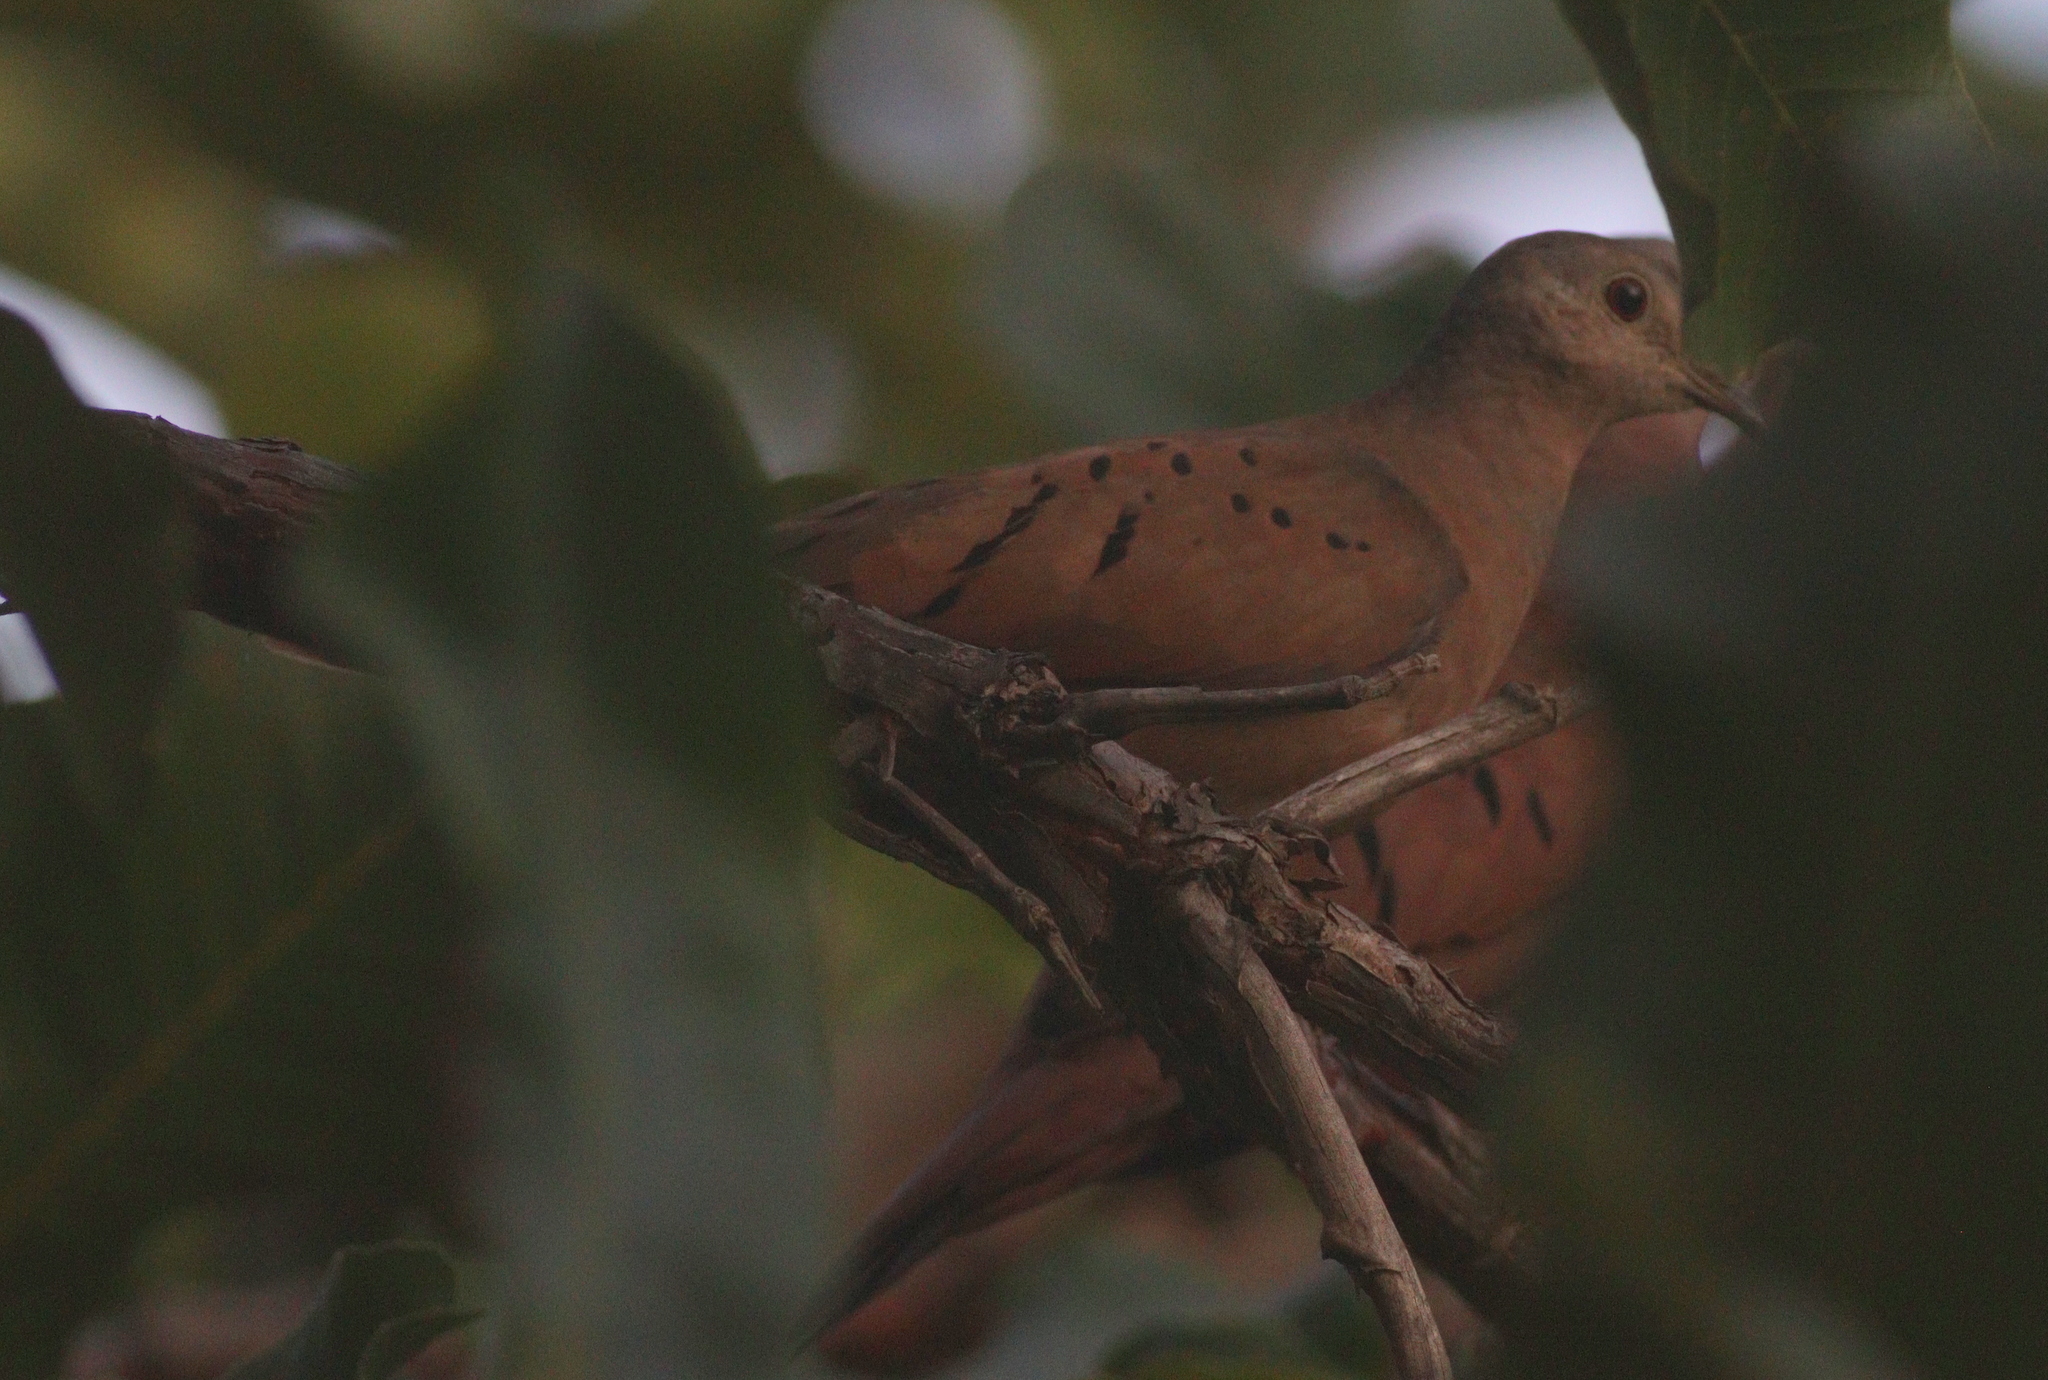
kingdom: Animalia
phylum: Chordata
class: Aves
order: Columbiformes
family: Columbidae
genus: Columbina
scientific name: Columbina talpacoti
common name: Ruddy ground dove
